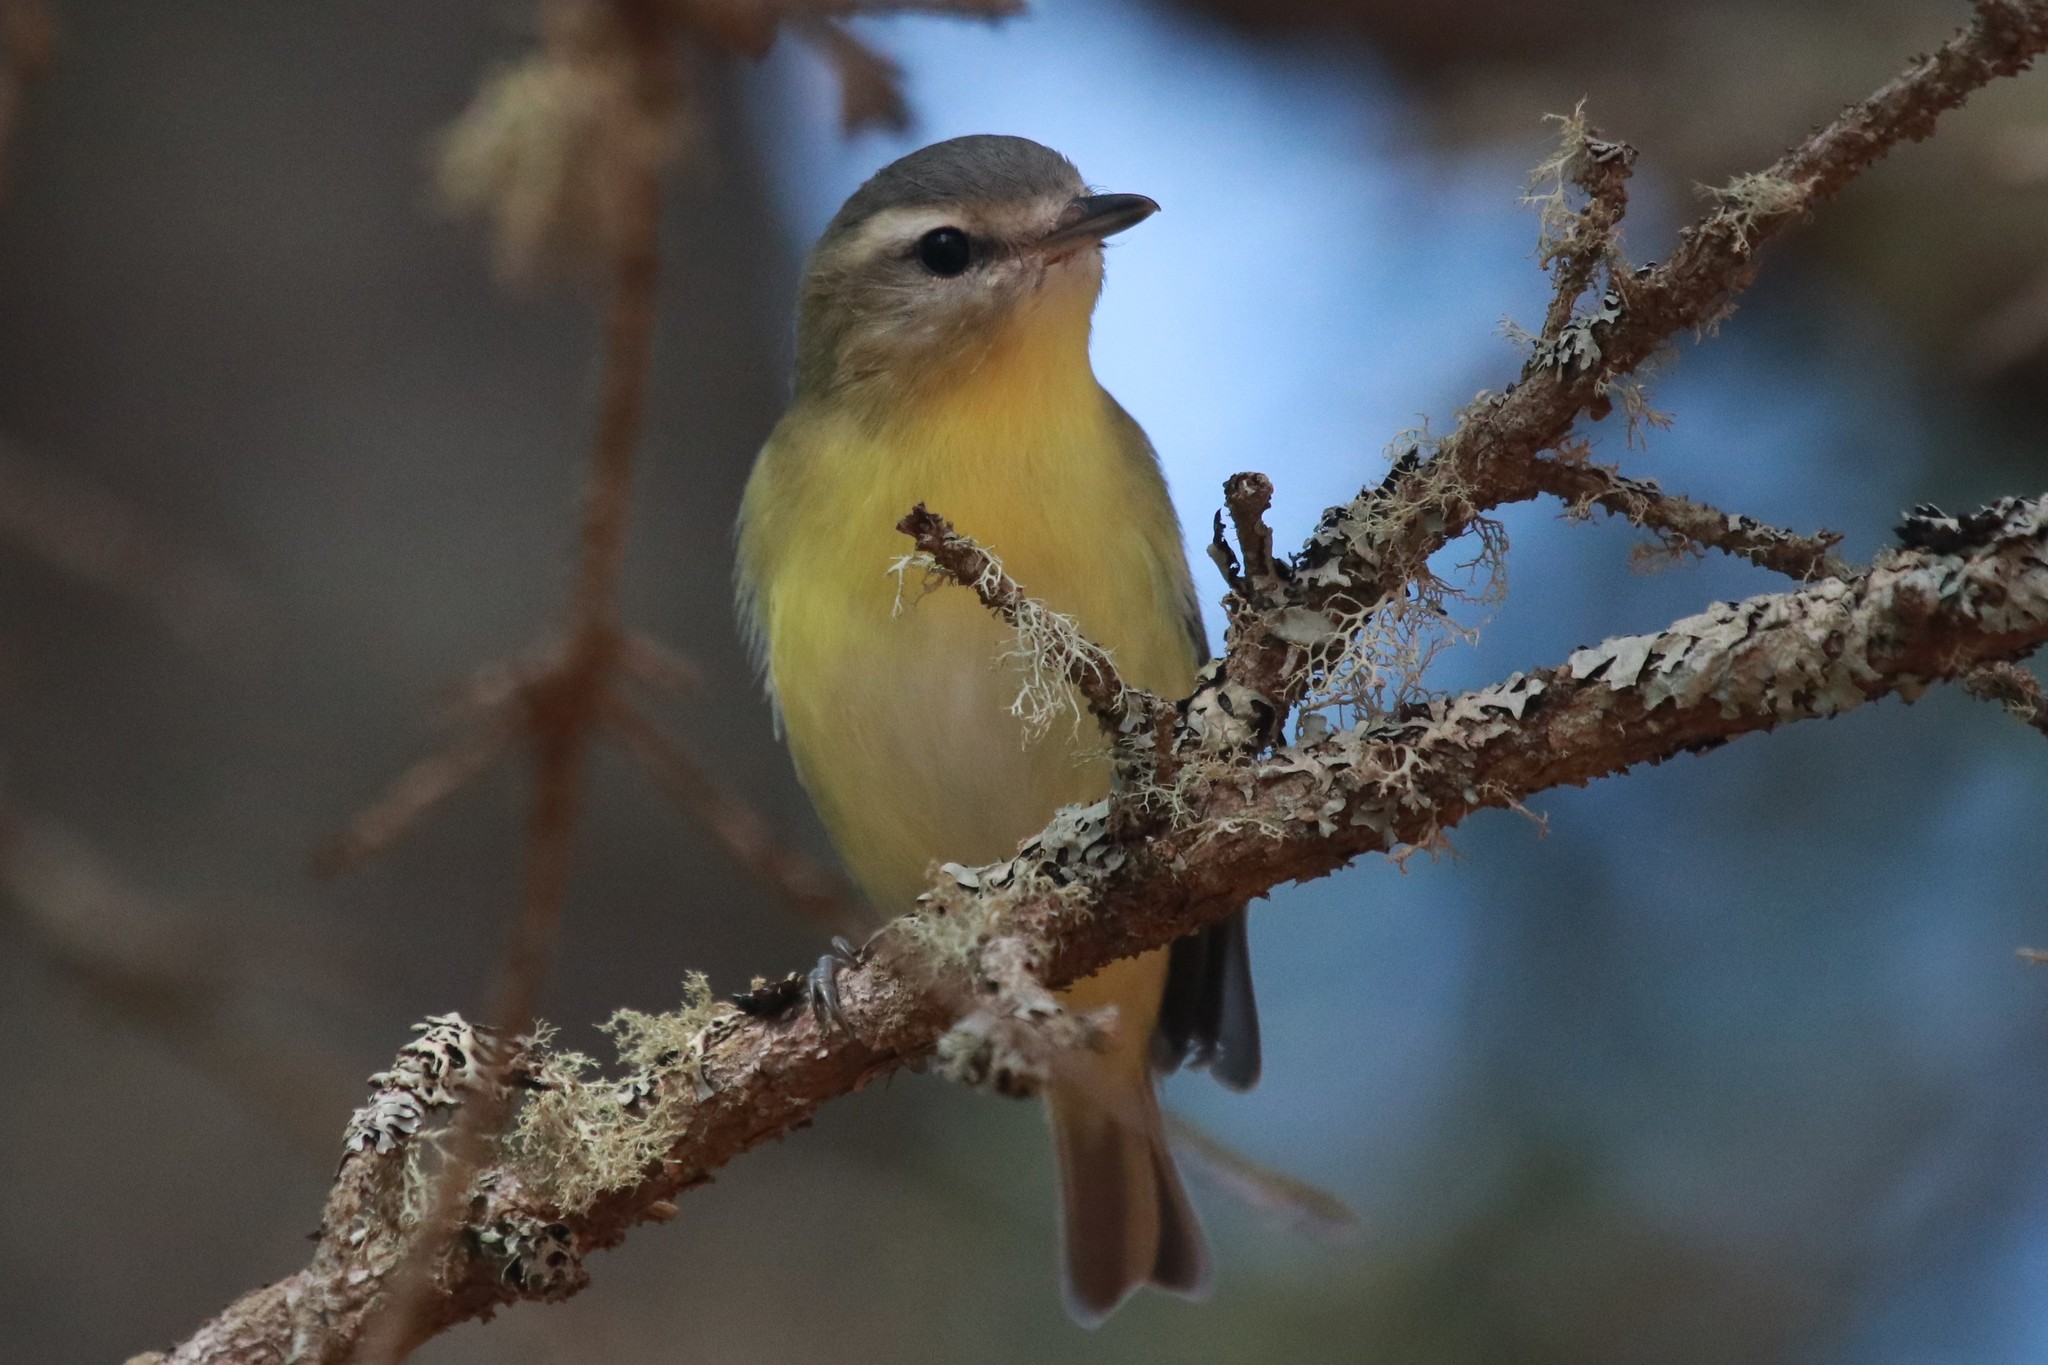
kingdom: Animalia
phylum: Chordata
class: Aves
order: Passeriformes
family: Vireonidae
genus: Vireo
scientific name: Vireo philadelphicus
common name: Philadelphia vireo
